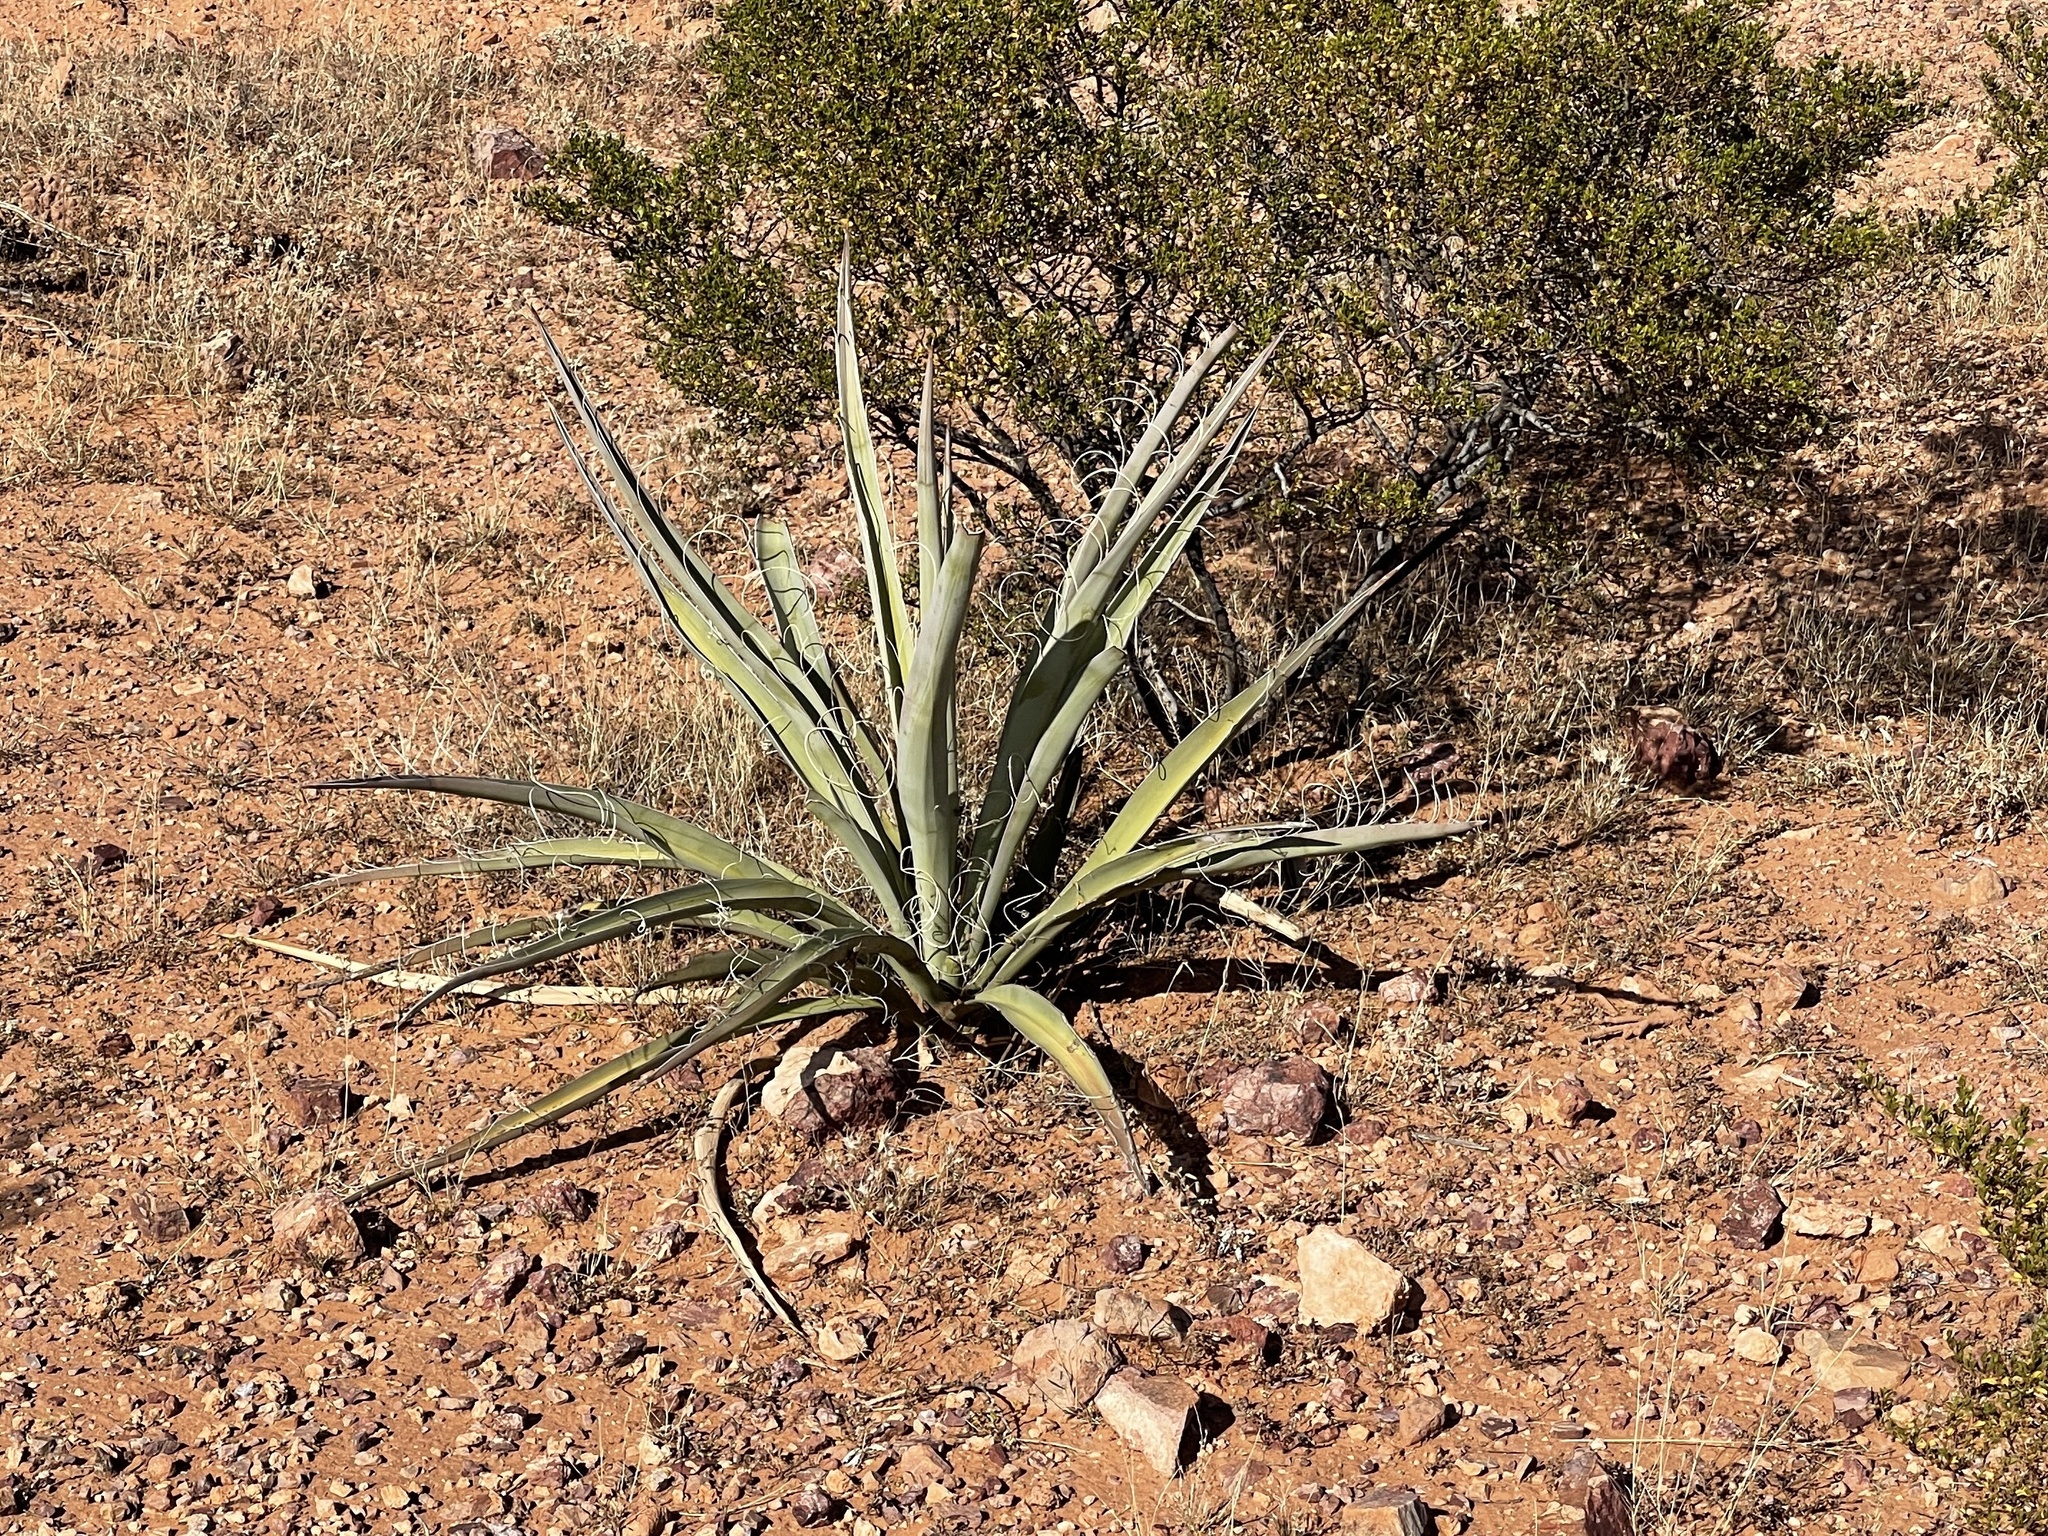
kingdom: Plantae
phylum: Tracheophyta
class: Liliopsida
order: Asparagales
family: Asparagaceae
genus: Yucca
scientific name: Yucca baccata
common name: Banana yucca
